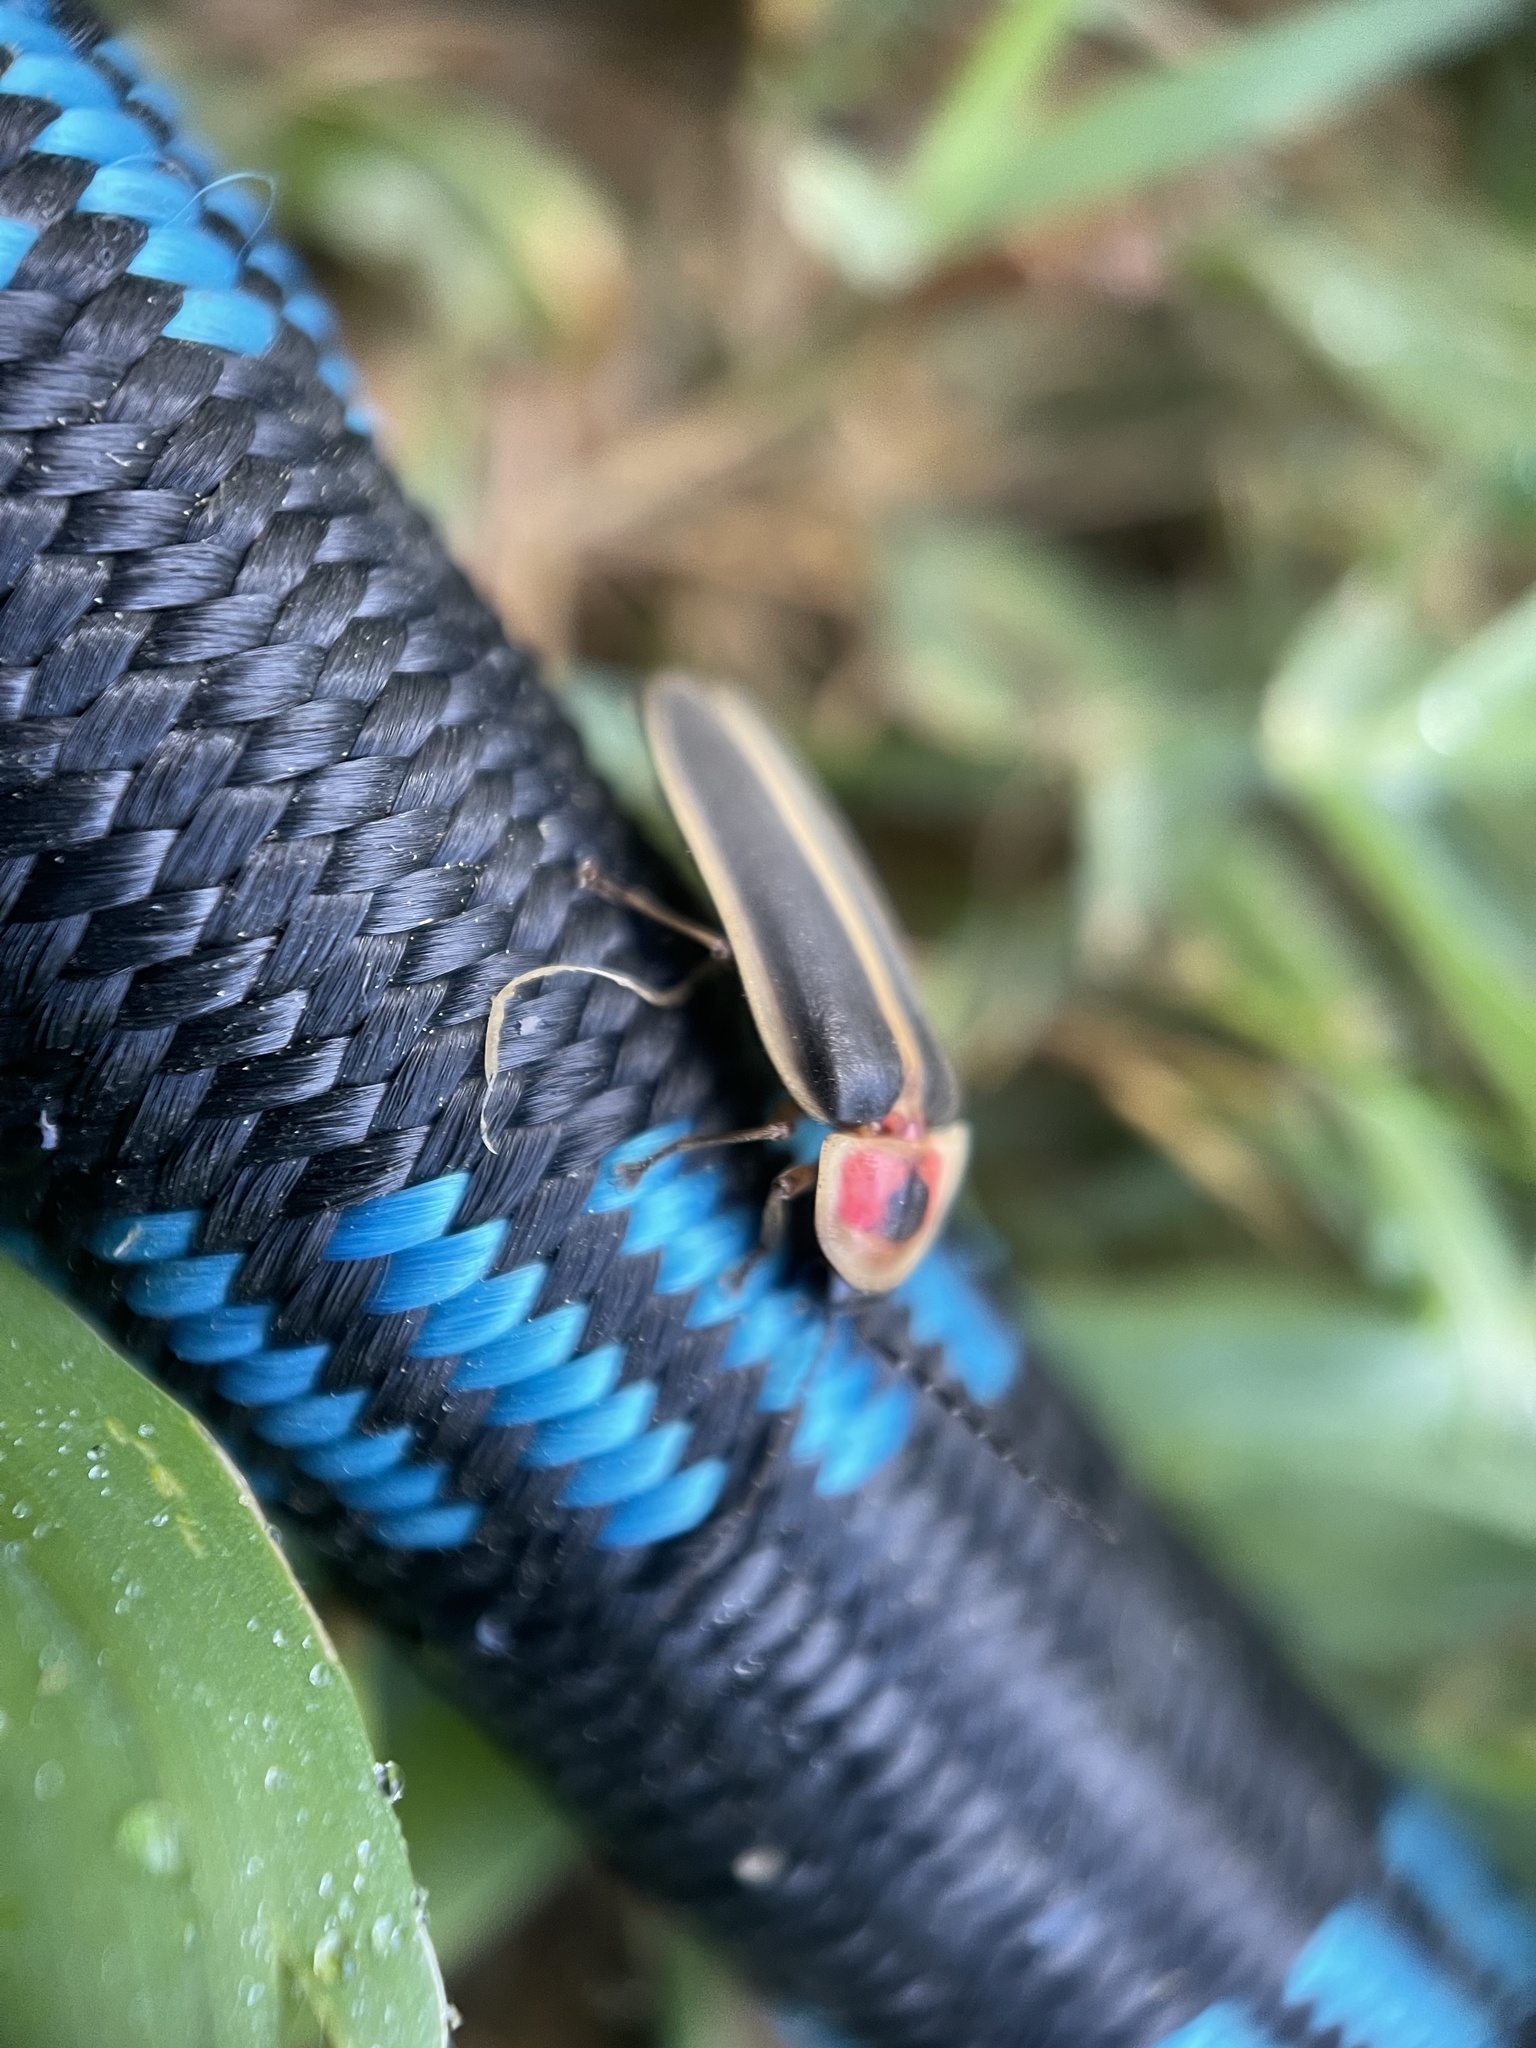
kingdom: Animalia
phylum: Arthropoda
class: Insecta
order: Coleoptera
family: Lampyridae
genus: Photinus
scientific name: Photinus pyralis
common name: Big dipper firefly
